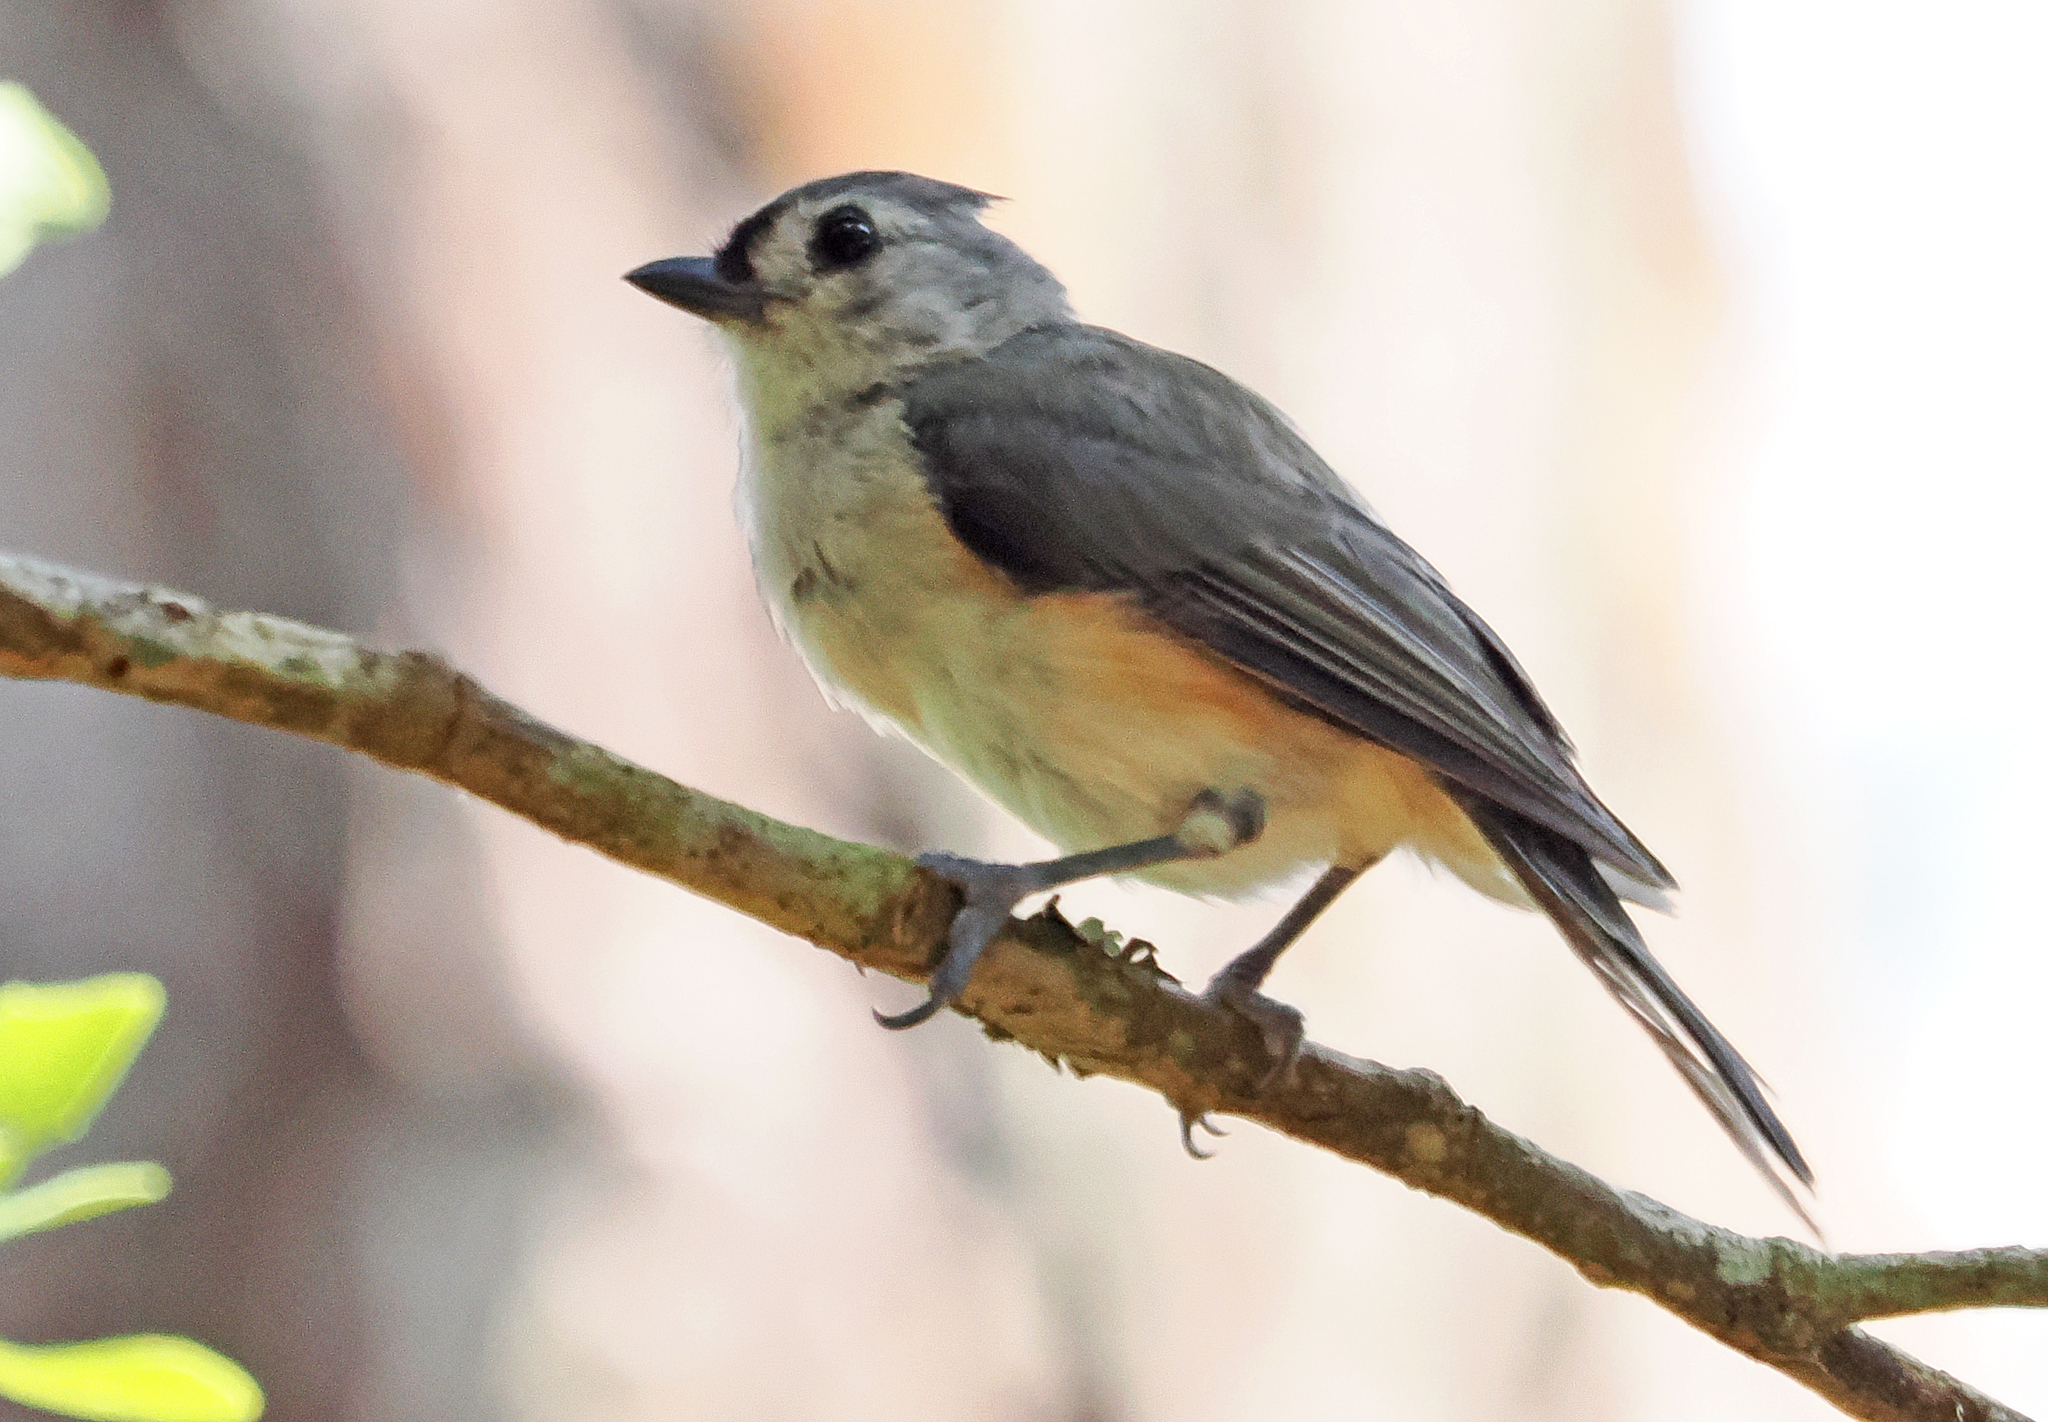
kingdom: Animalia
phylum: Chordata
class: Aves
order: Passeriformes
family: Paridae
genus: Baeolophus
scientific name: Baeolophus bicolor
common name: Tufted titmouse
